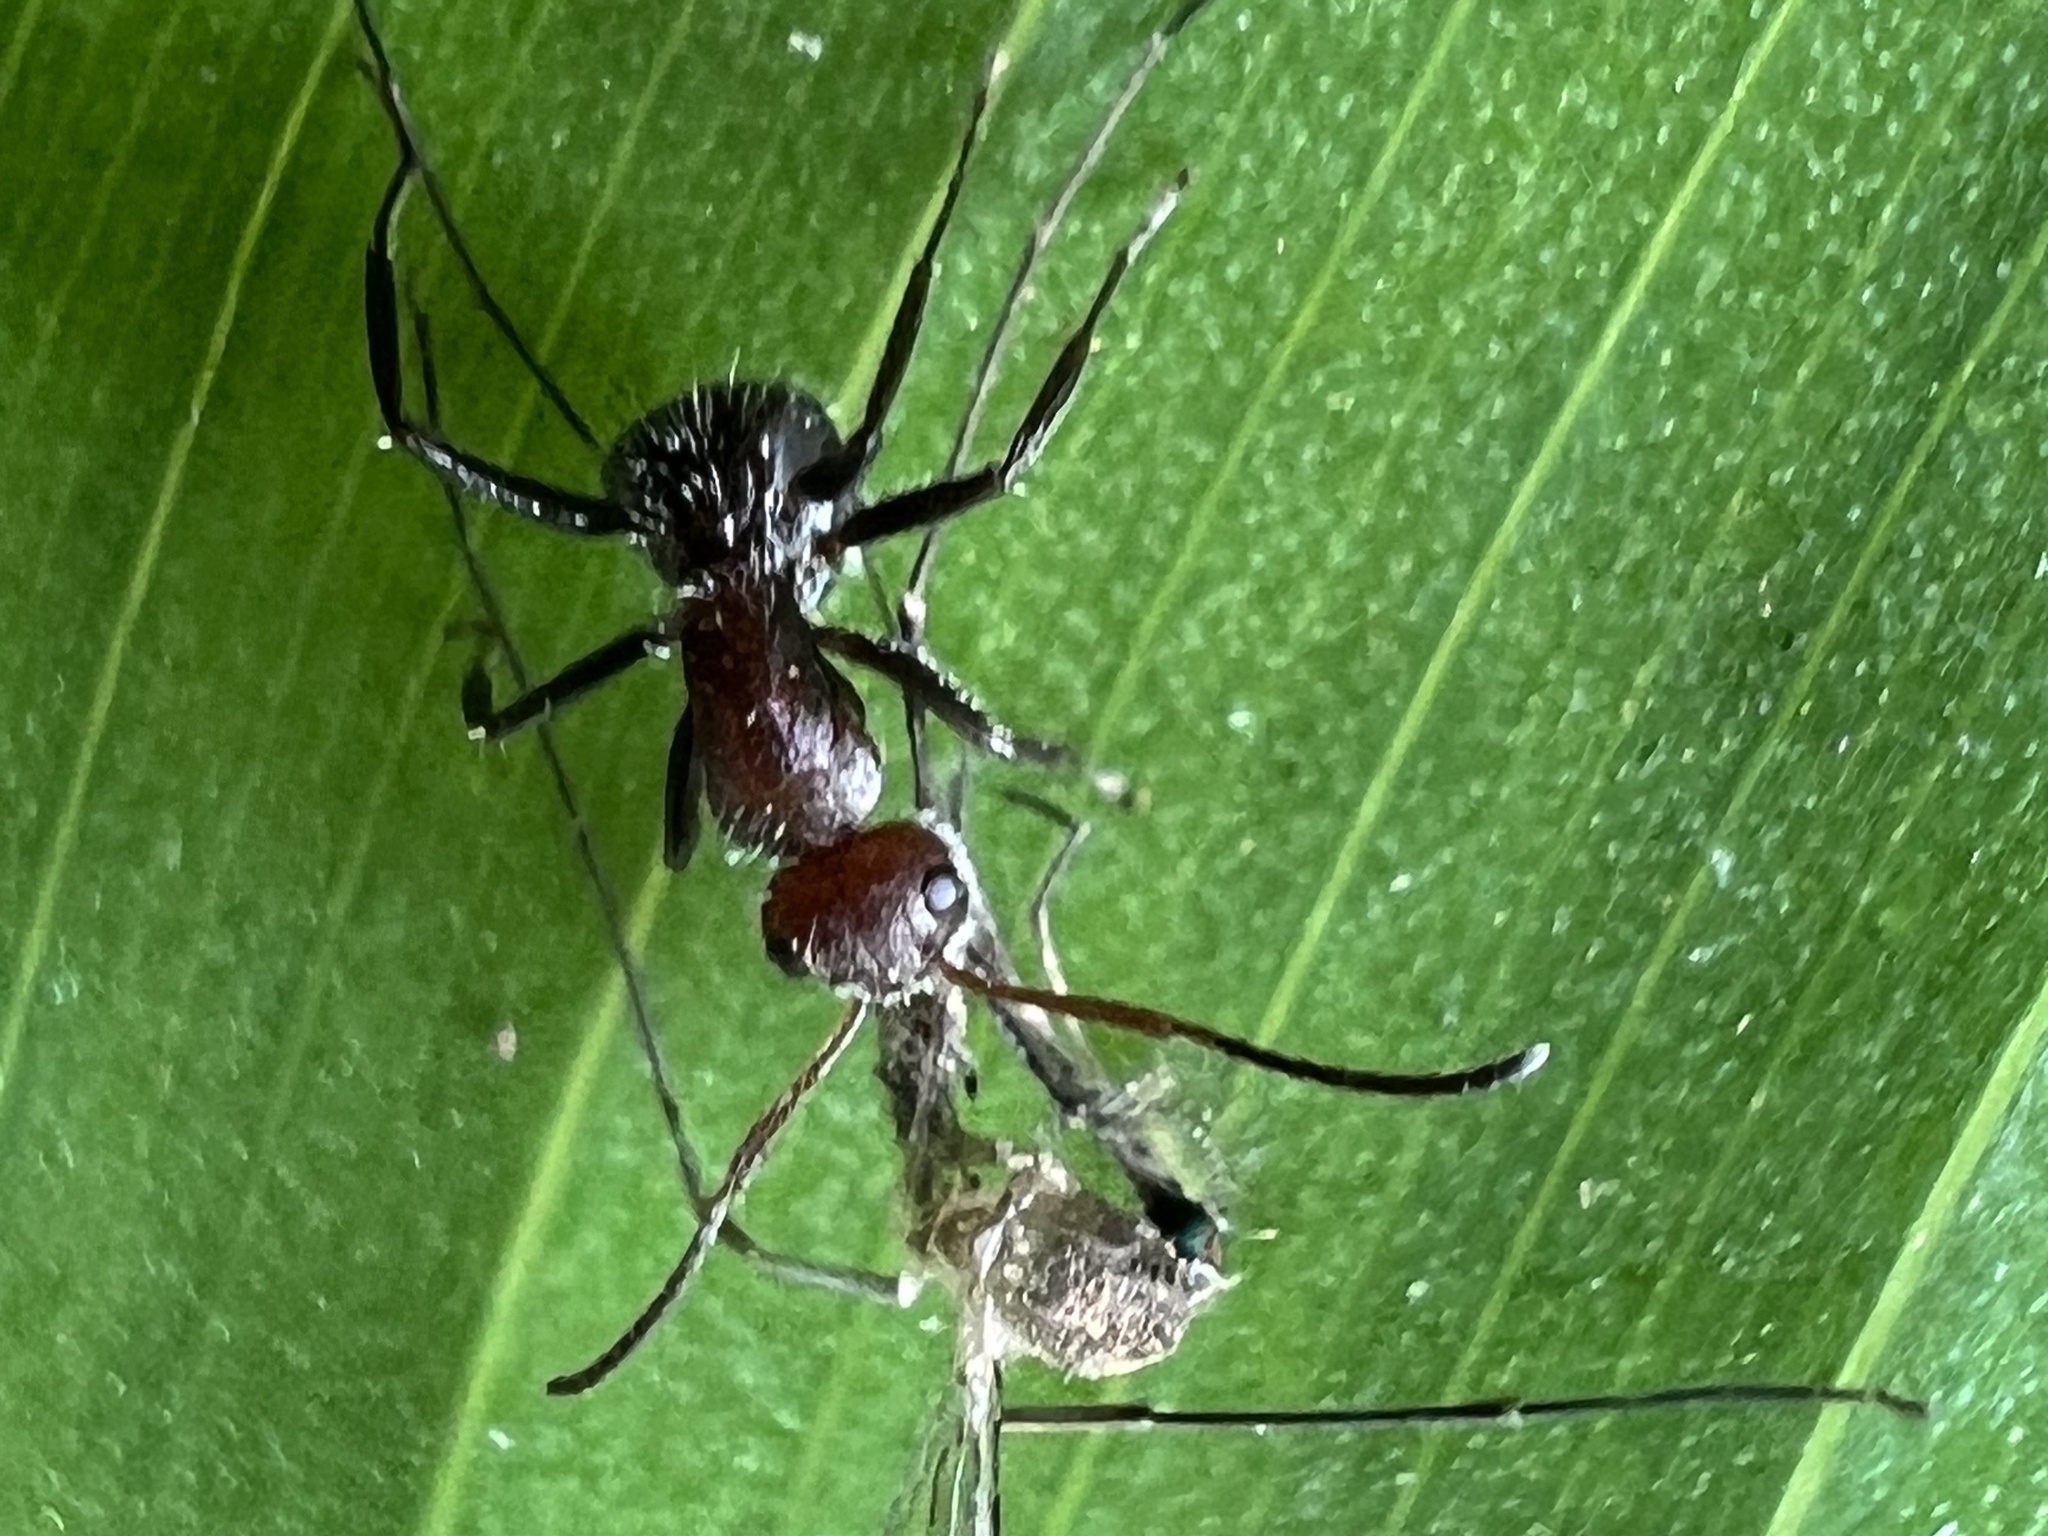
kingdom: Animalia
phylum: Arthropoda
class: Insecta
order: Hymenoptera
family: Formicidae
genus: Camponotus
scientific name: Camponotus planatus
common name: Compact carpenter ant
